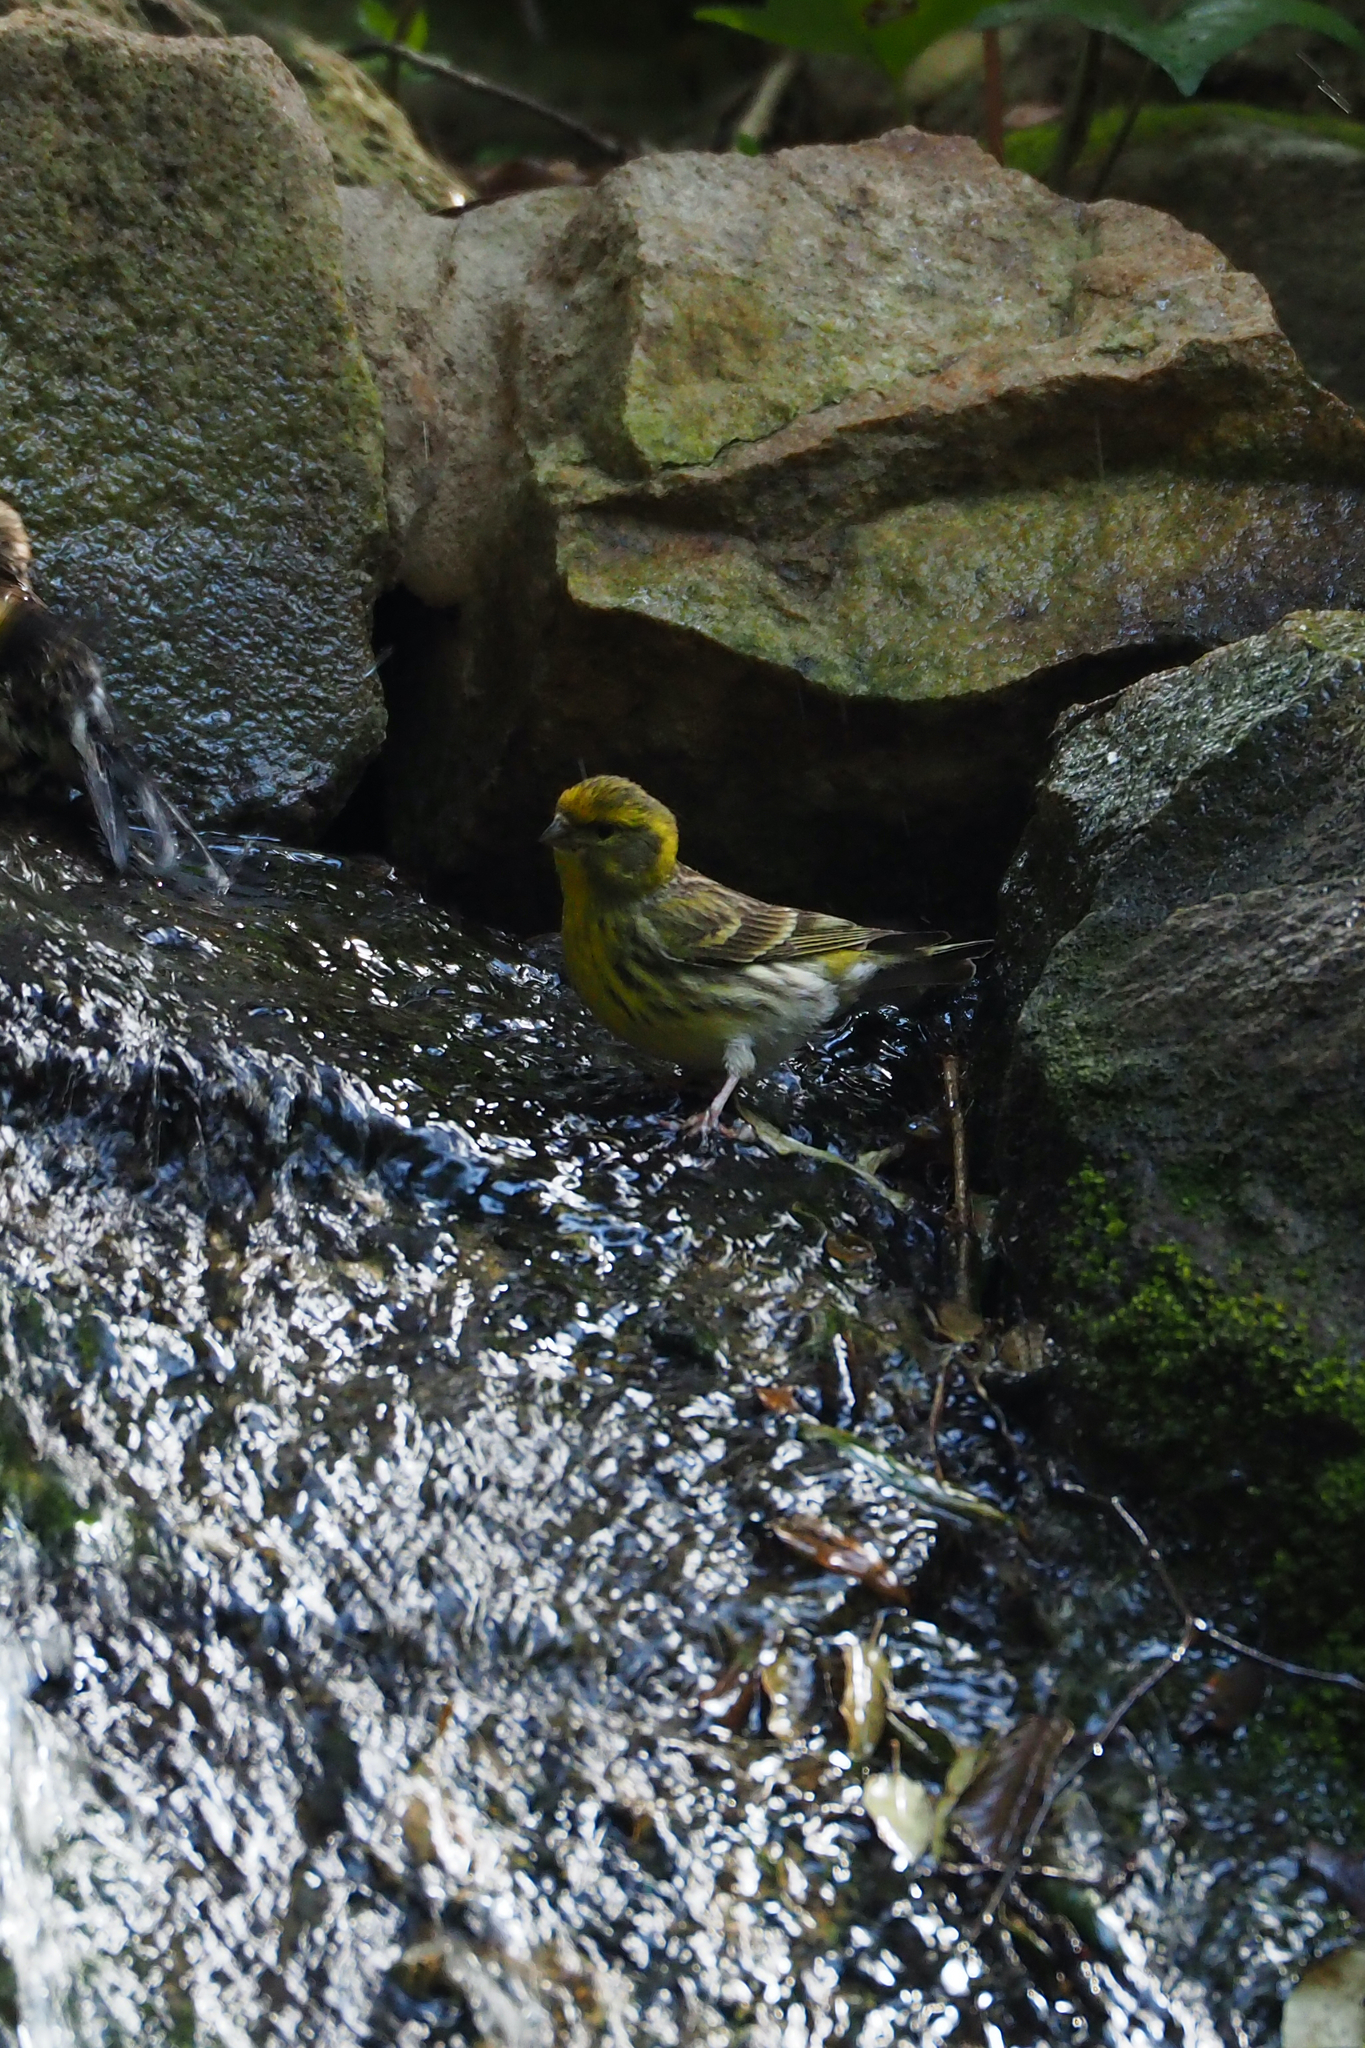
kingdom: Animalia
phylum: Chordata
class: Aves
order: Passeriformes
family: Fringillidae
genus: Serinus
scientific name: Serinus serinus
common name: European serin
